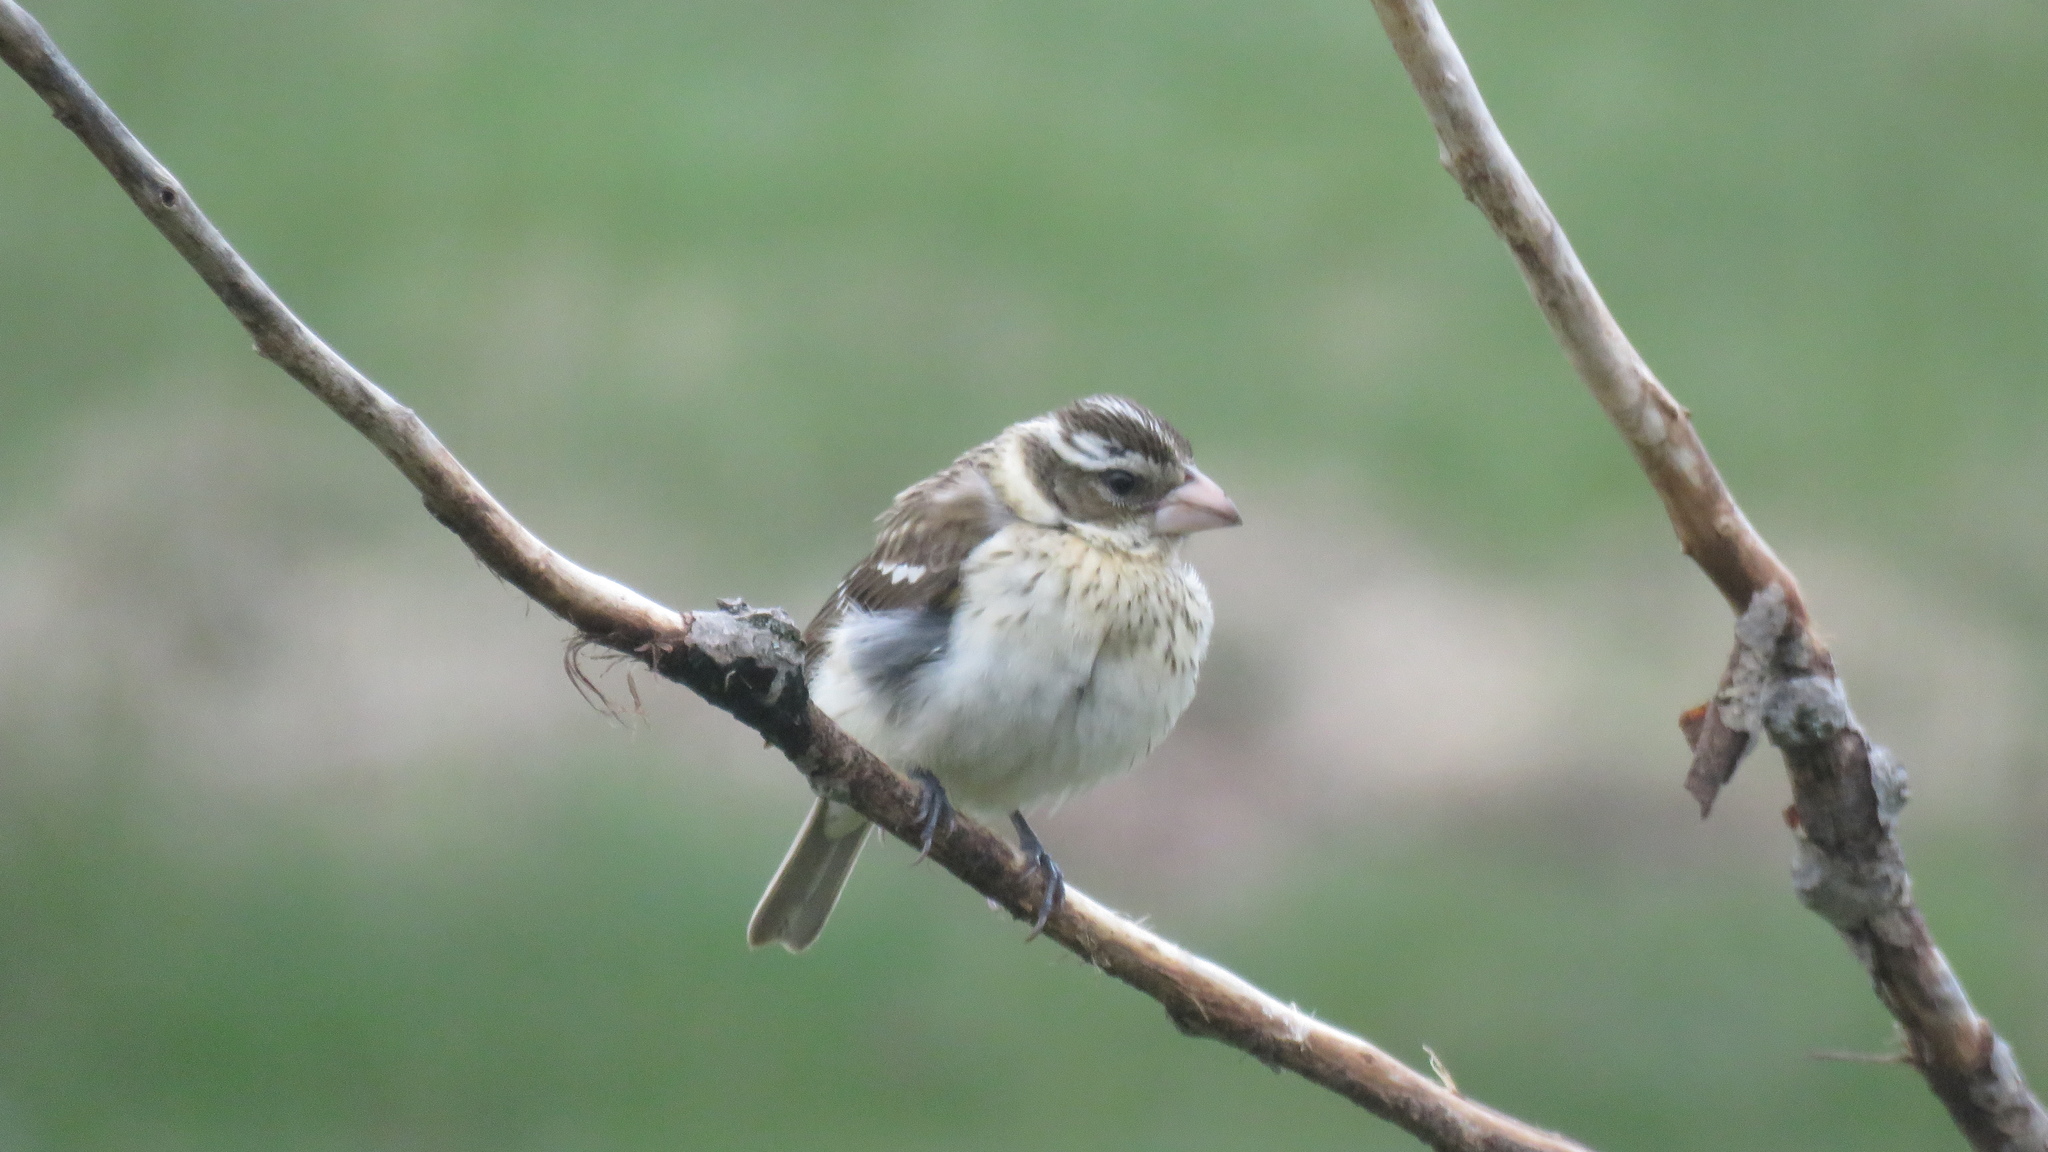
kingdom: Animalia
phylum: Chordata
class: Aves
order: Passeriformes
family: Cardinalidae
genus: Pheucticus
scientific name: Pheucticus ludovicianus
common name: Rose-breasted grosbeak
